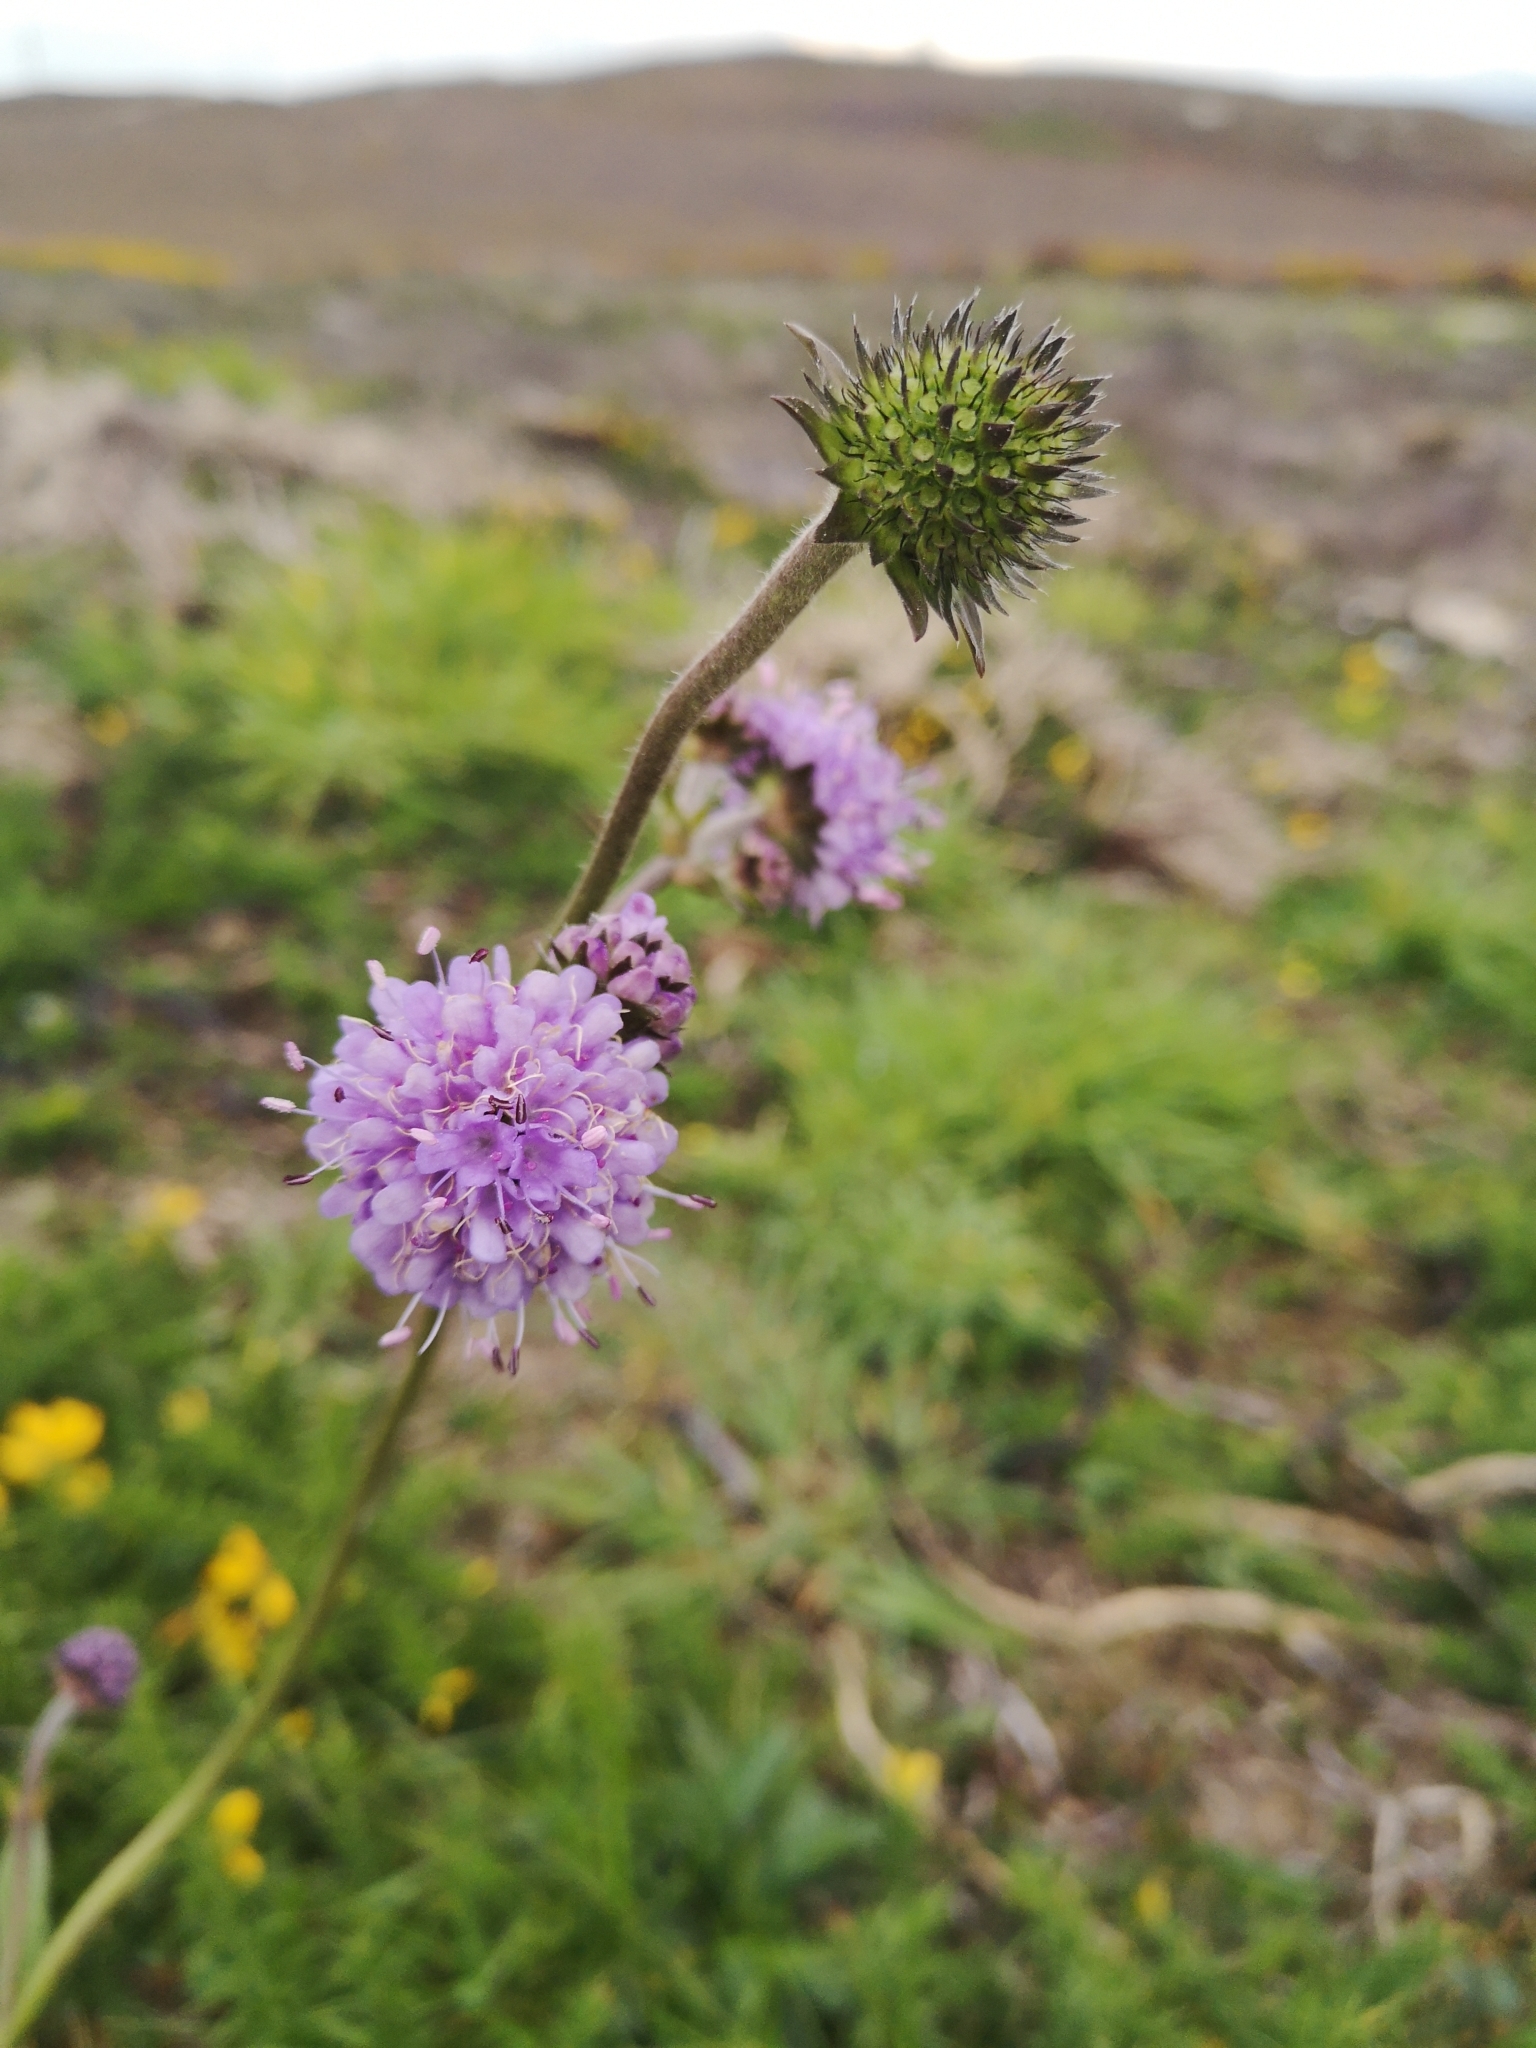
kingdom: Plantae
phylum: Tracheophyta
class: Magnoliopsida
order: Dipsacales
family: Caprifoliaceae
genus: Succisa
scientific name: Succisa pratensis
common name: Devil's-bit
